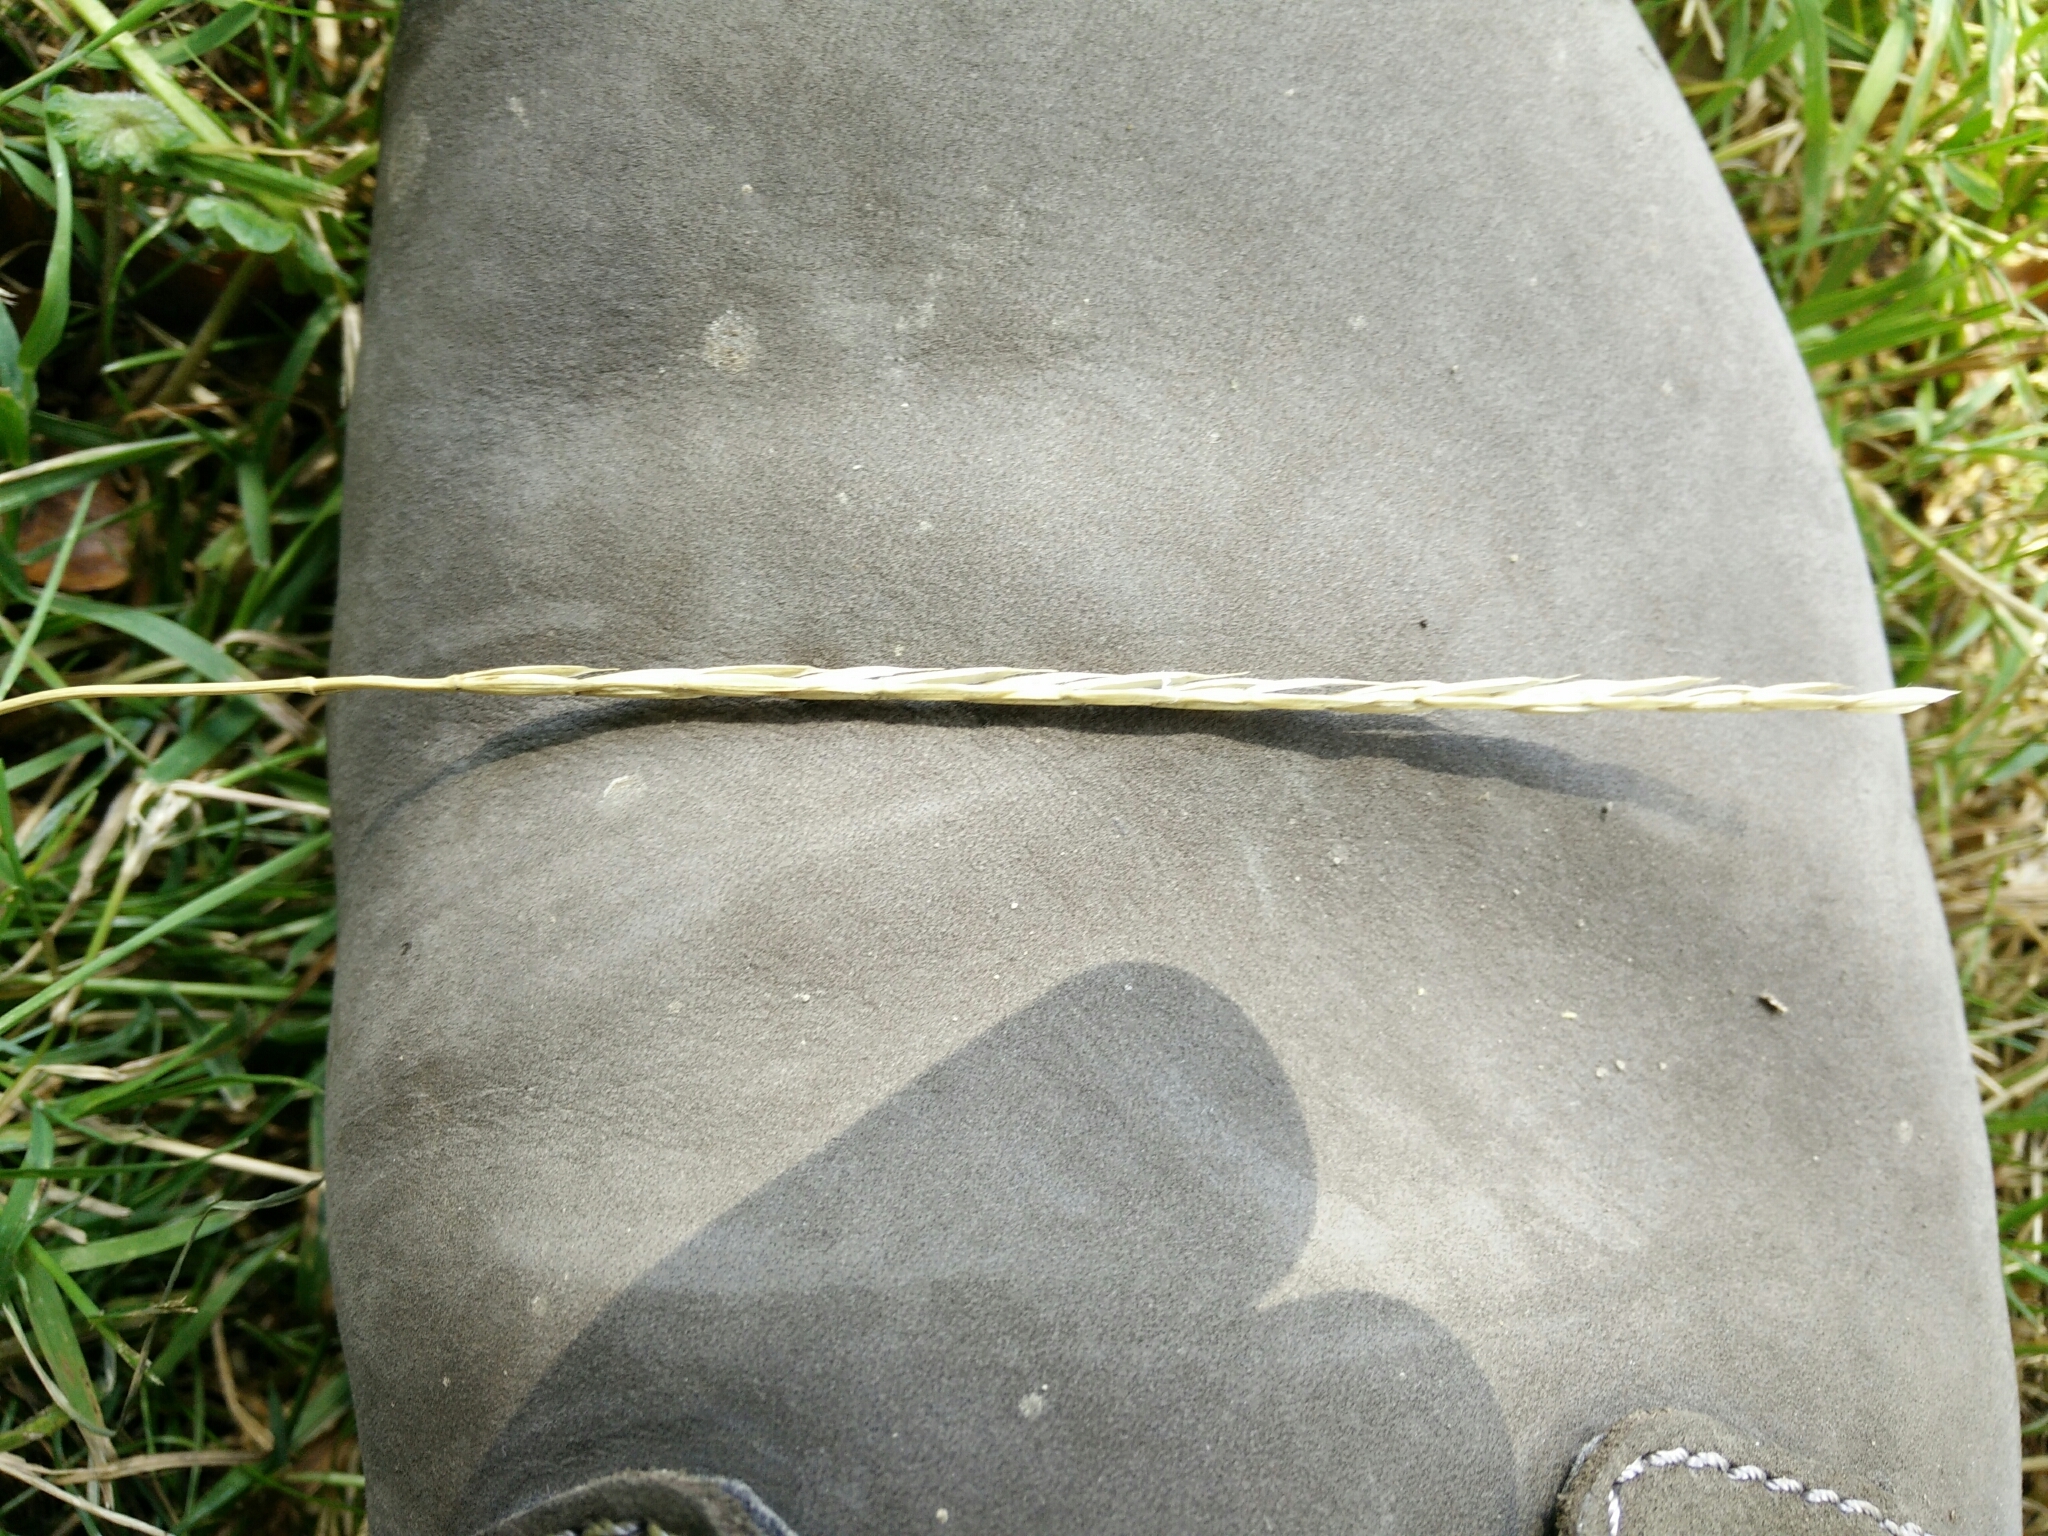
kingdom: Plantae
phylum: Tracheophyta
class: Liliopsida
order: Poales
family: Poaceae
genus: Elymus
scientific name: Elymus caninus
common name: Bearded couch
